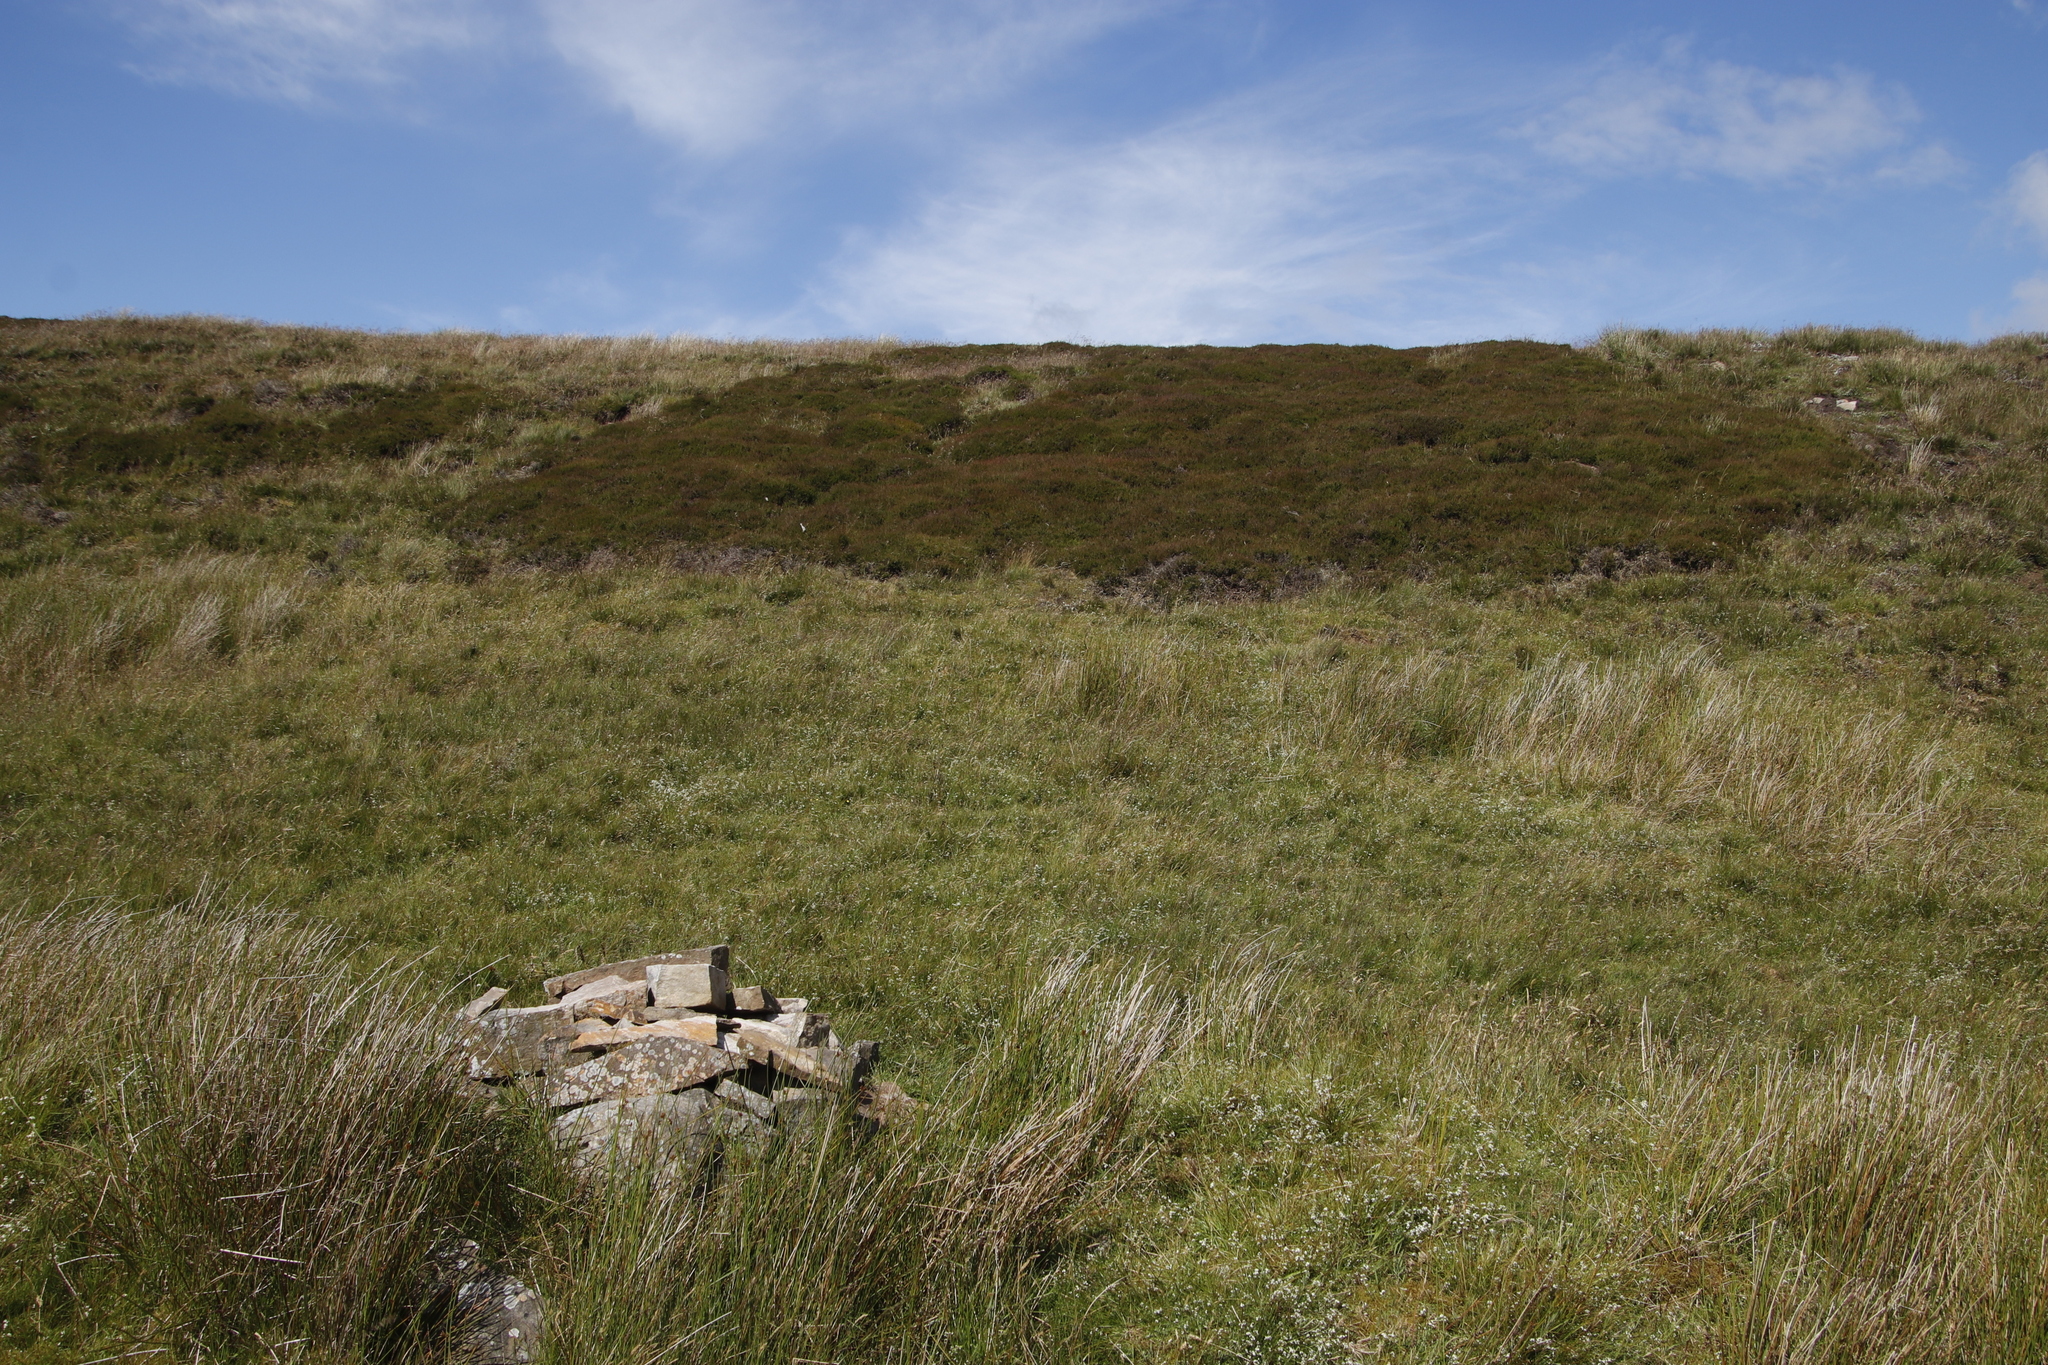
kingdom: Plantae
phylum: Tracheophyta
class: Magnoliopsida
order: Ericales
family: Ericaceae
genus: Calluna
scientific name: Calluna vulgaris
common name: Heather
